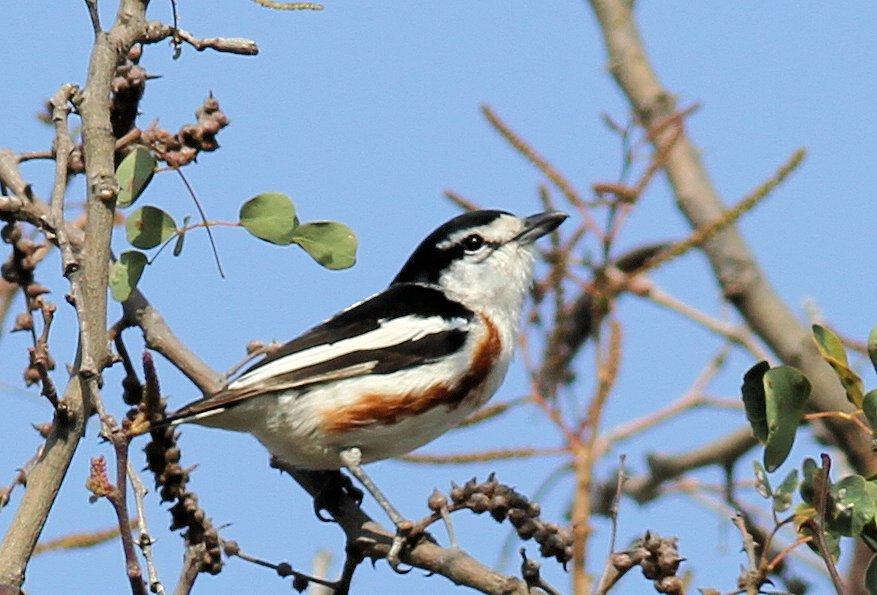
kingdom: Animalia
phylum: Chordata
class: Aves
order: Passeriformes
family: Malaconotidae
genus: Nilaus
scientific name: Nilaus afer
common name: Brubru
